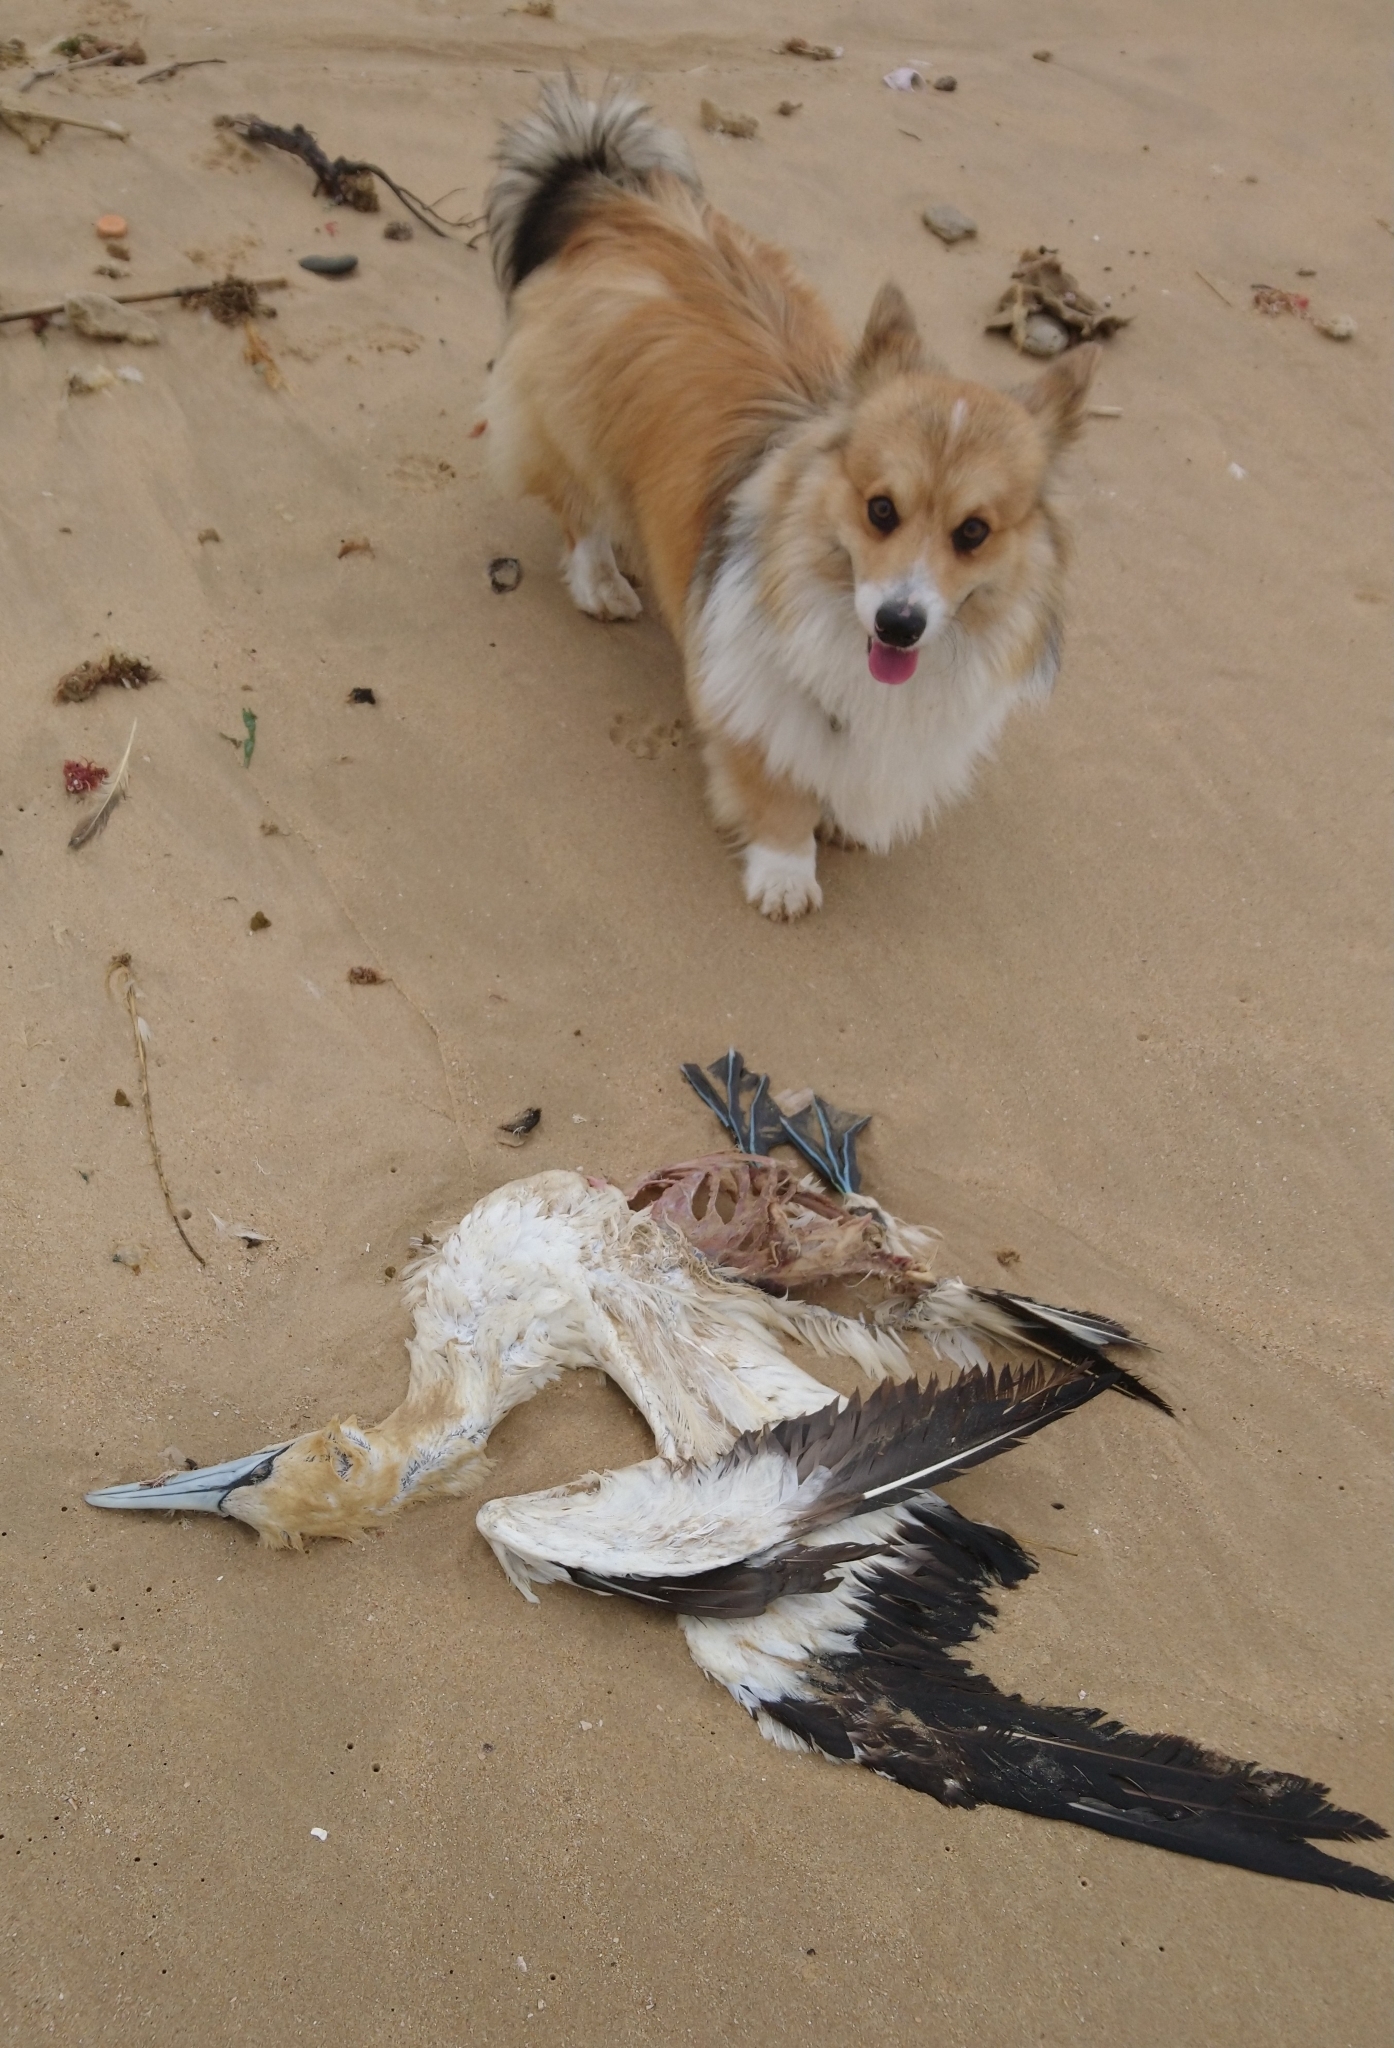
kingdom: Animalia
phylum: Chordata
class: Aves
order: Suliformes
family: Sulidae
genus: Morus
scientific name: Morus capensis
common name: Cape gannet
